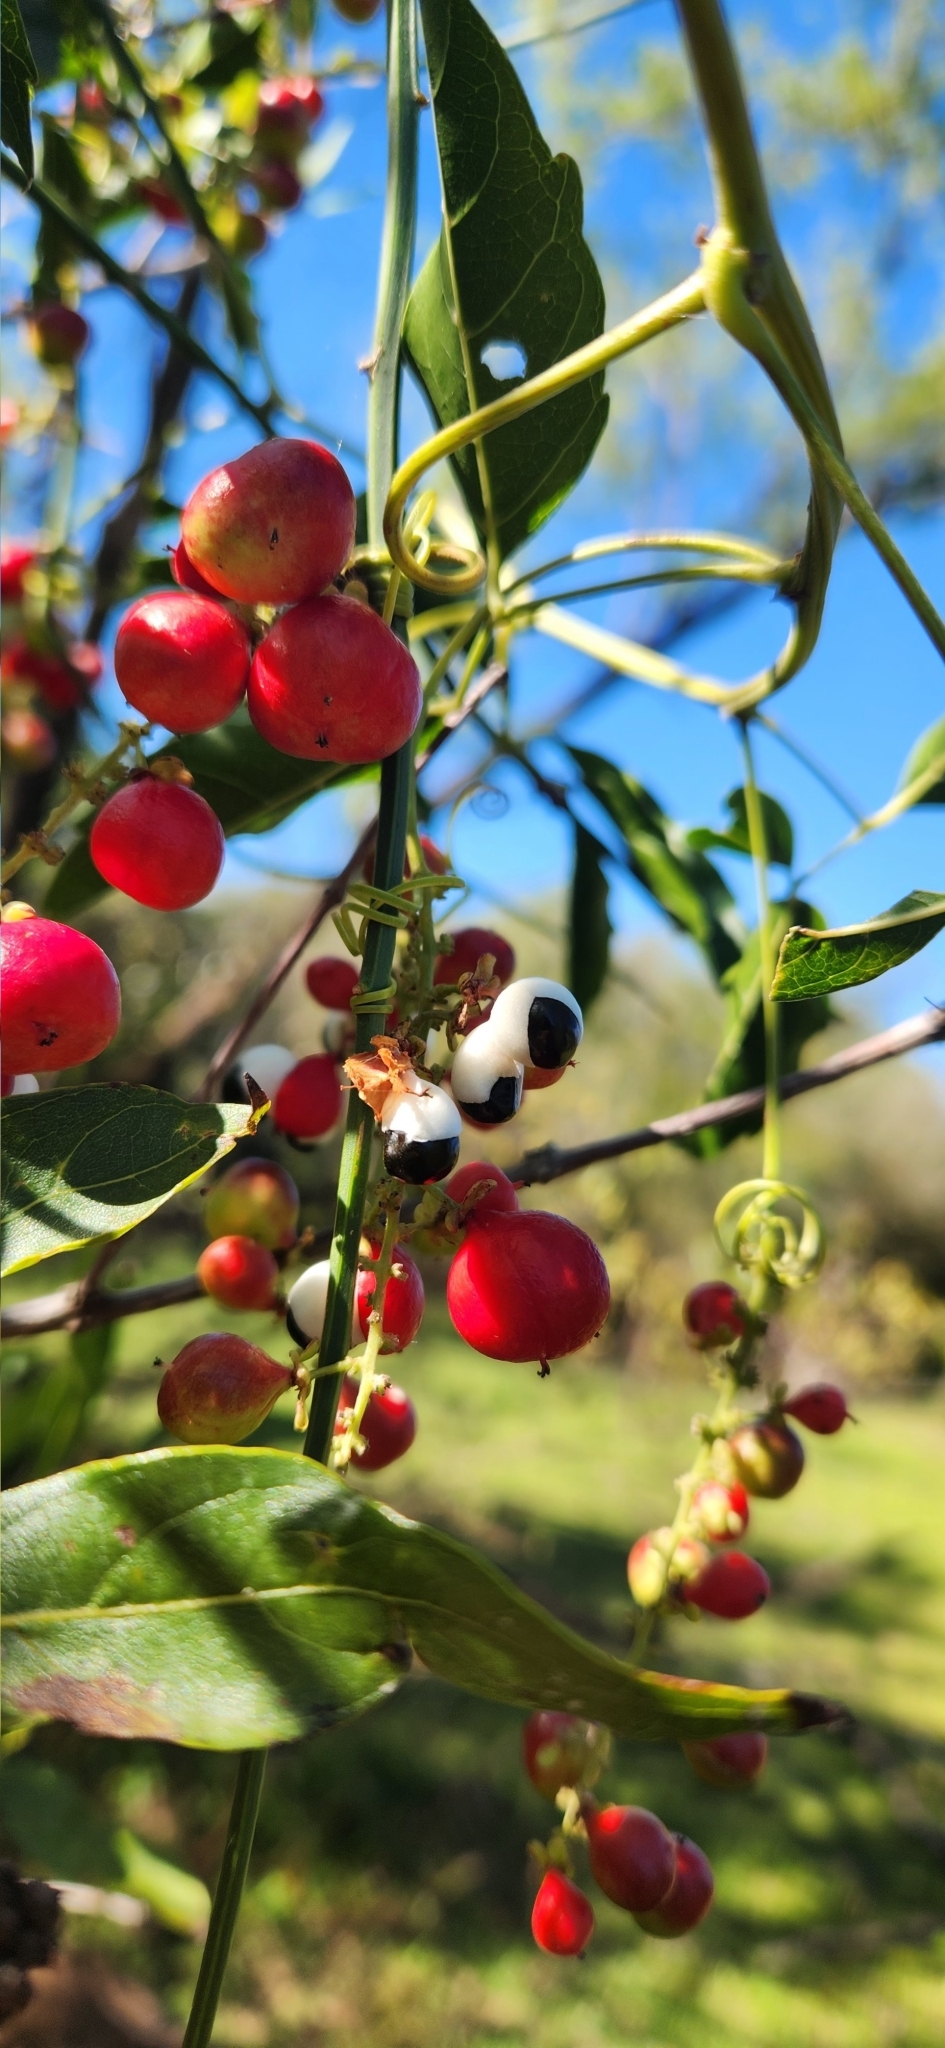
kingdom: Plantae
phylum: Tracheophyta
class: Magnoliopsida
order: Sapindales
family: Sapindaceae
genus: Paullinia
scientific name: Paullinia elegans
